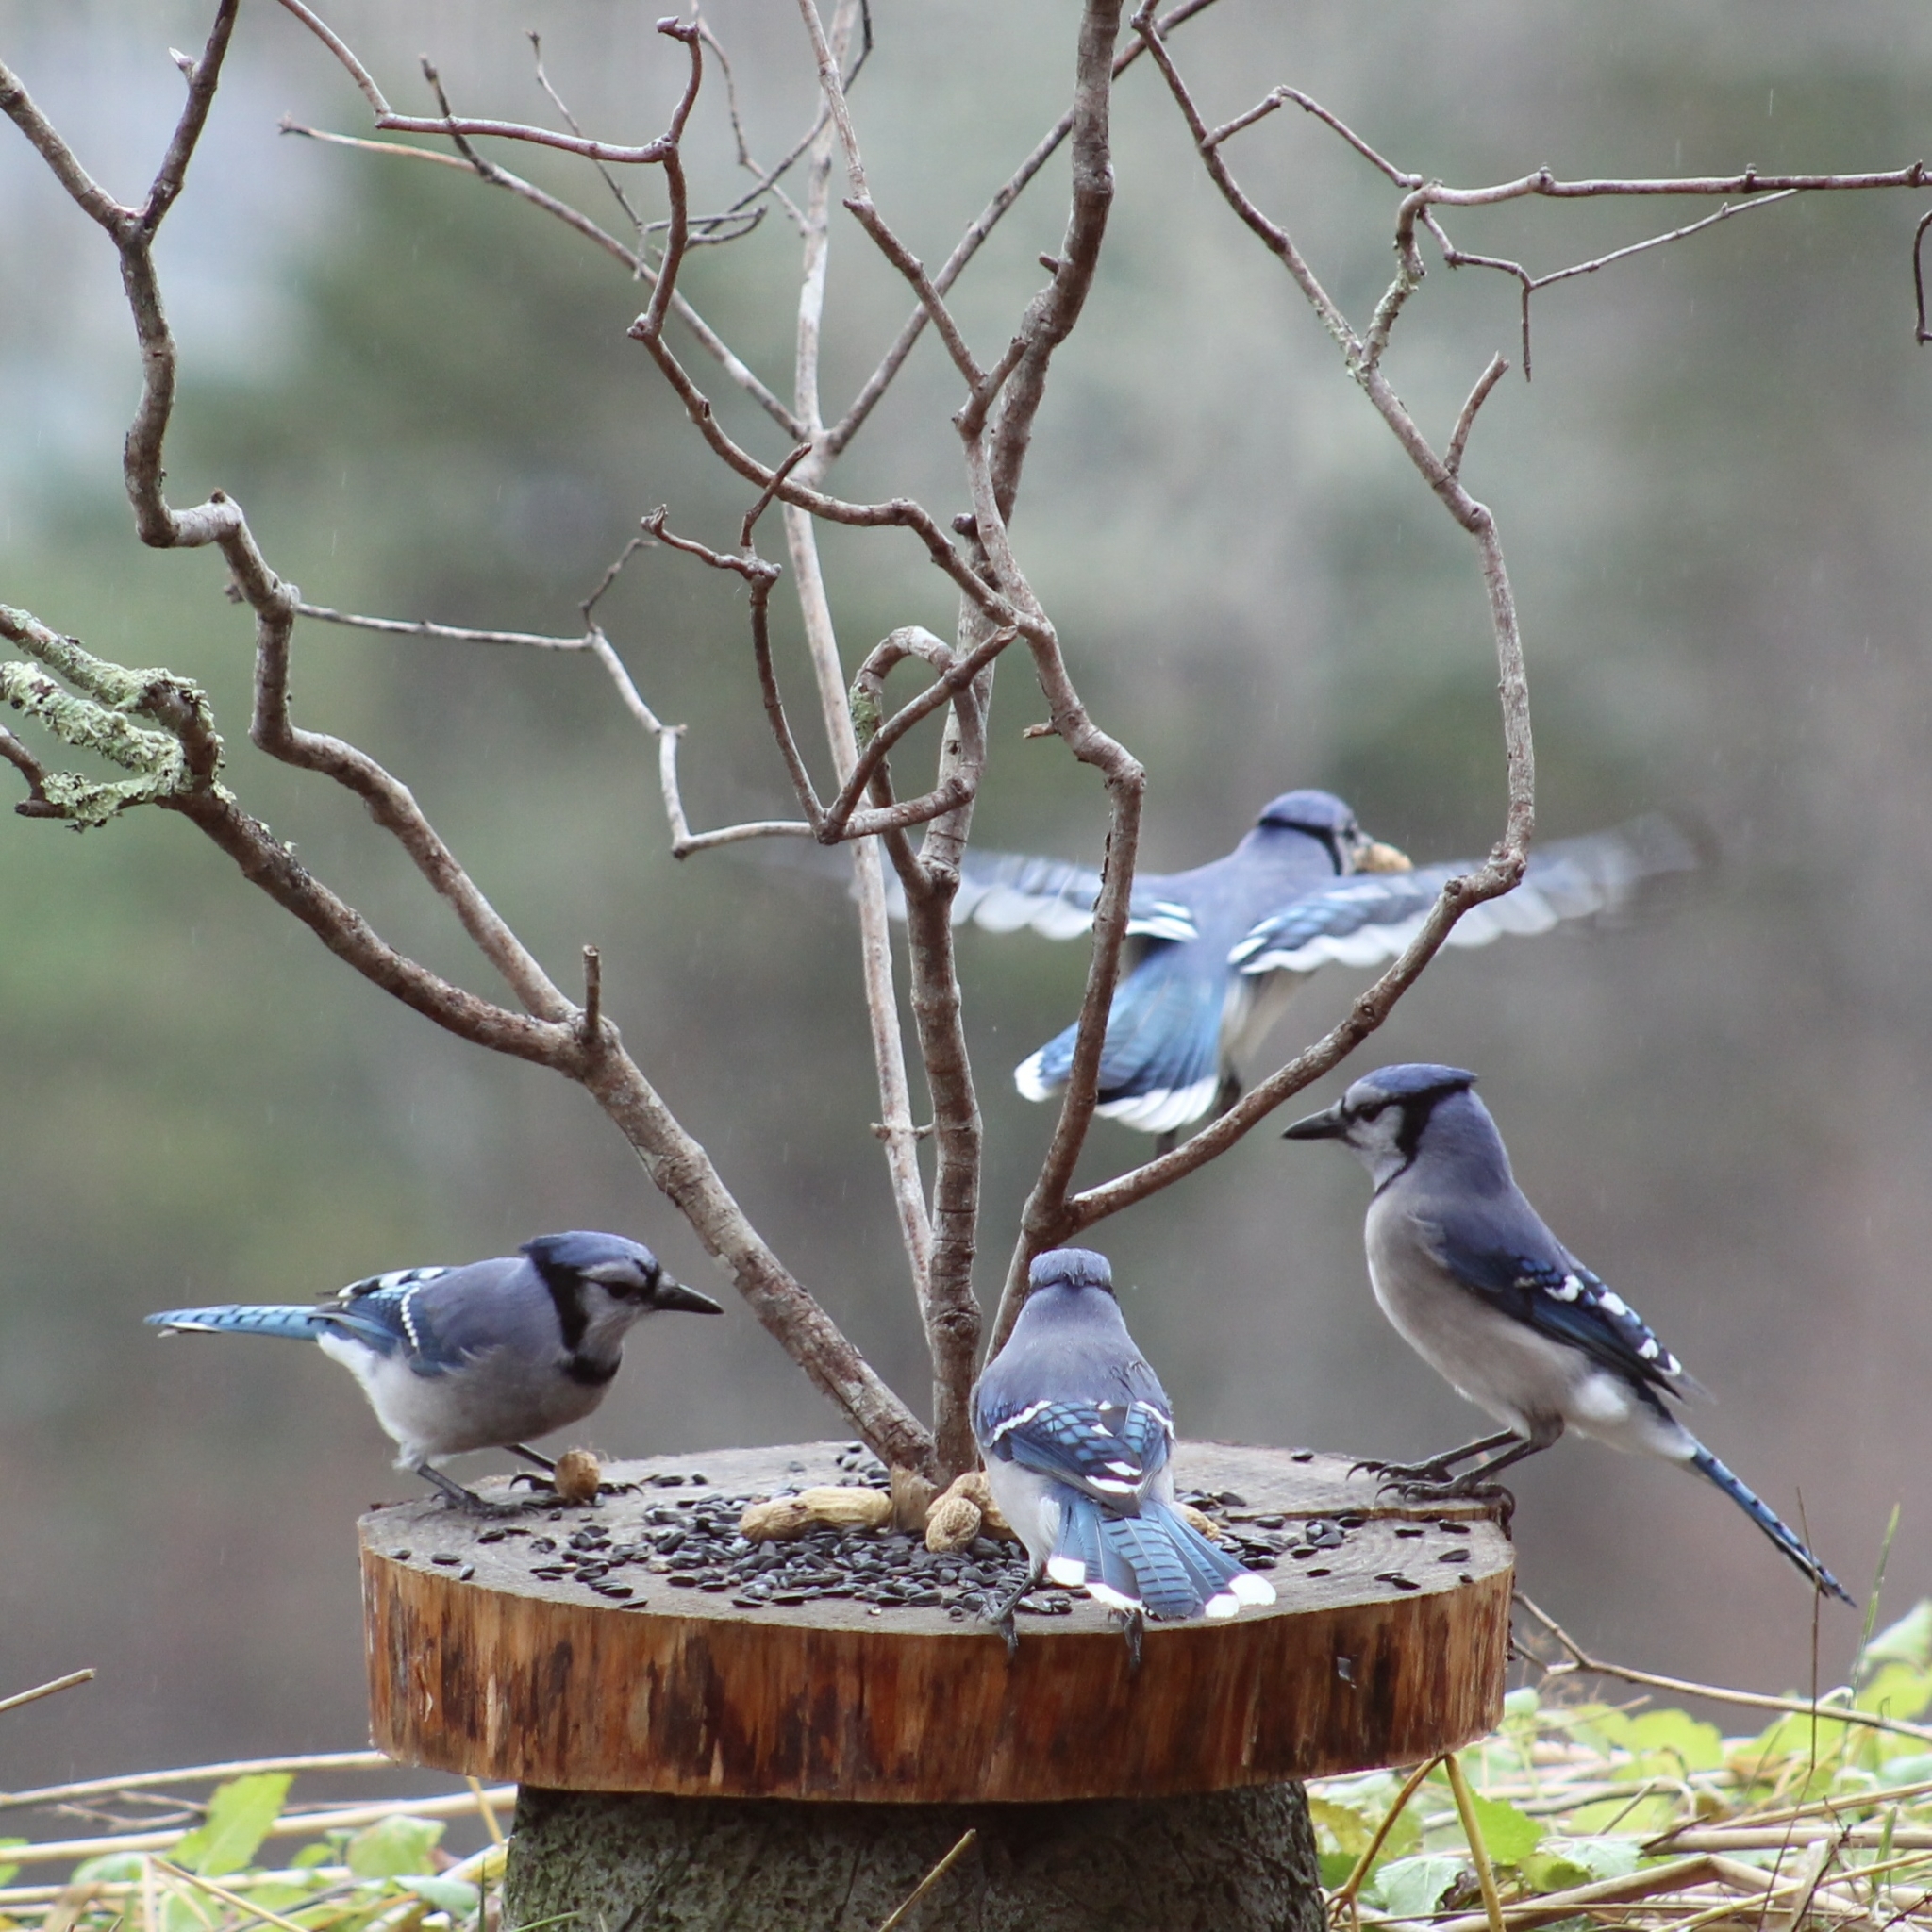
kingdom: Animalia
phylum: Chordata
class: Aves
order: Passeriformes
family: Corvidae
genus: Cyanocitta
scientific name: Cyanocitta cristata
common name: Blue jay
